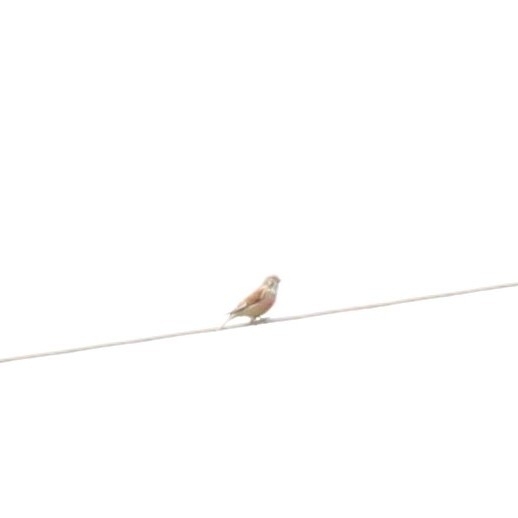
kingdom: Animalia
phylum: Chordata
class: Aves
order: Passeriformes
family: Fringillidae
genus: Linaria
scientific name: Linaria cannabina
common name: Common linnet
